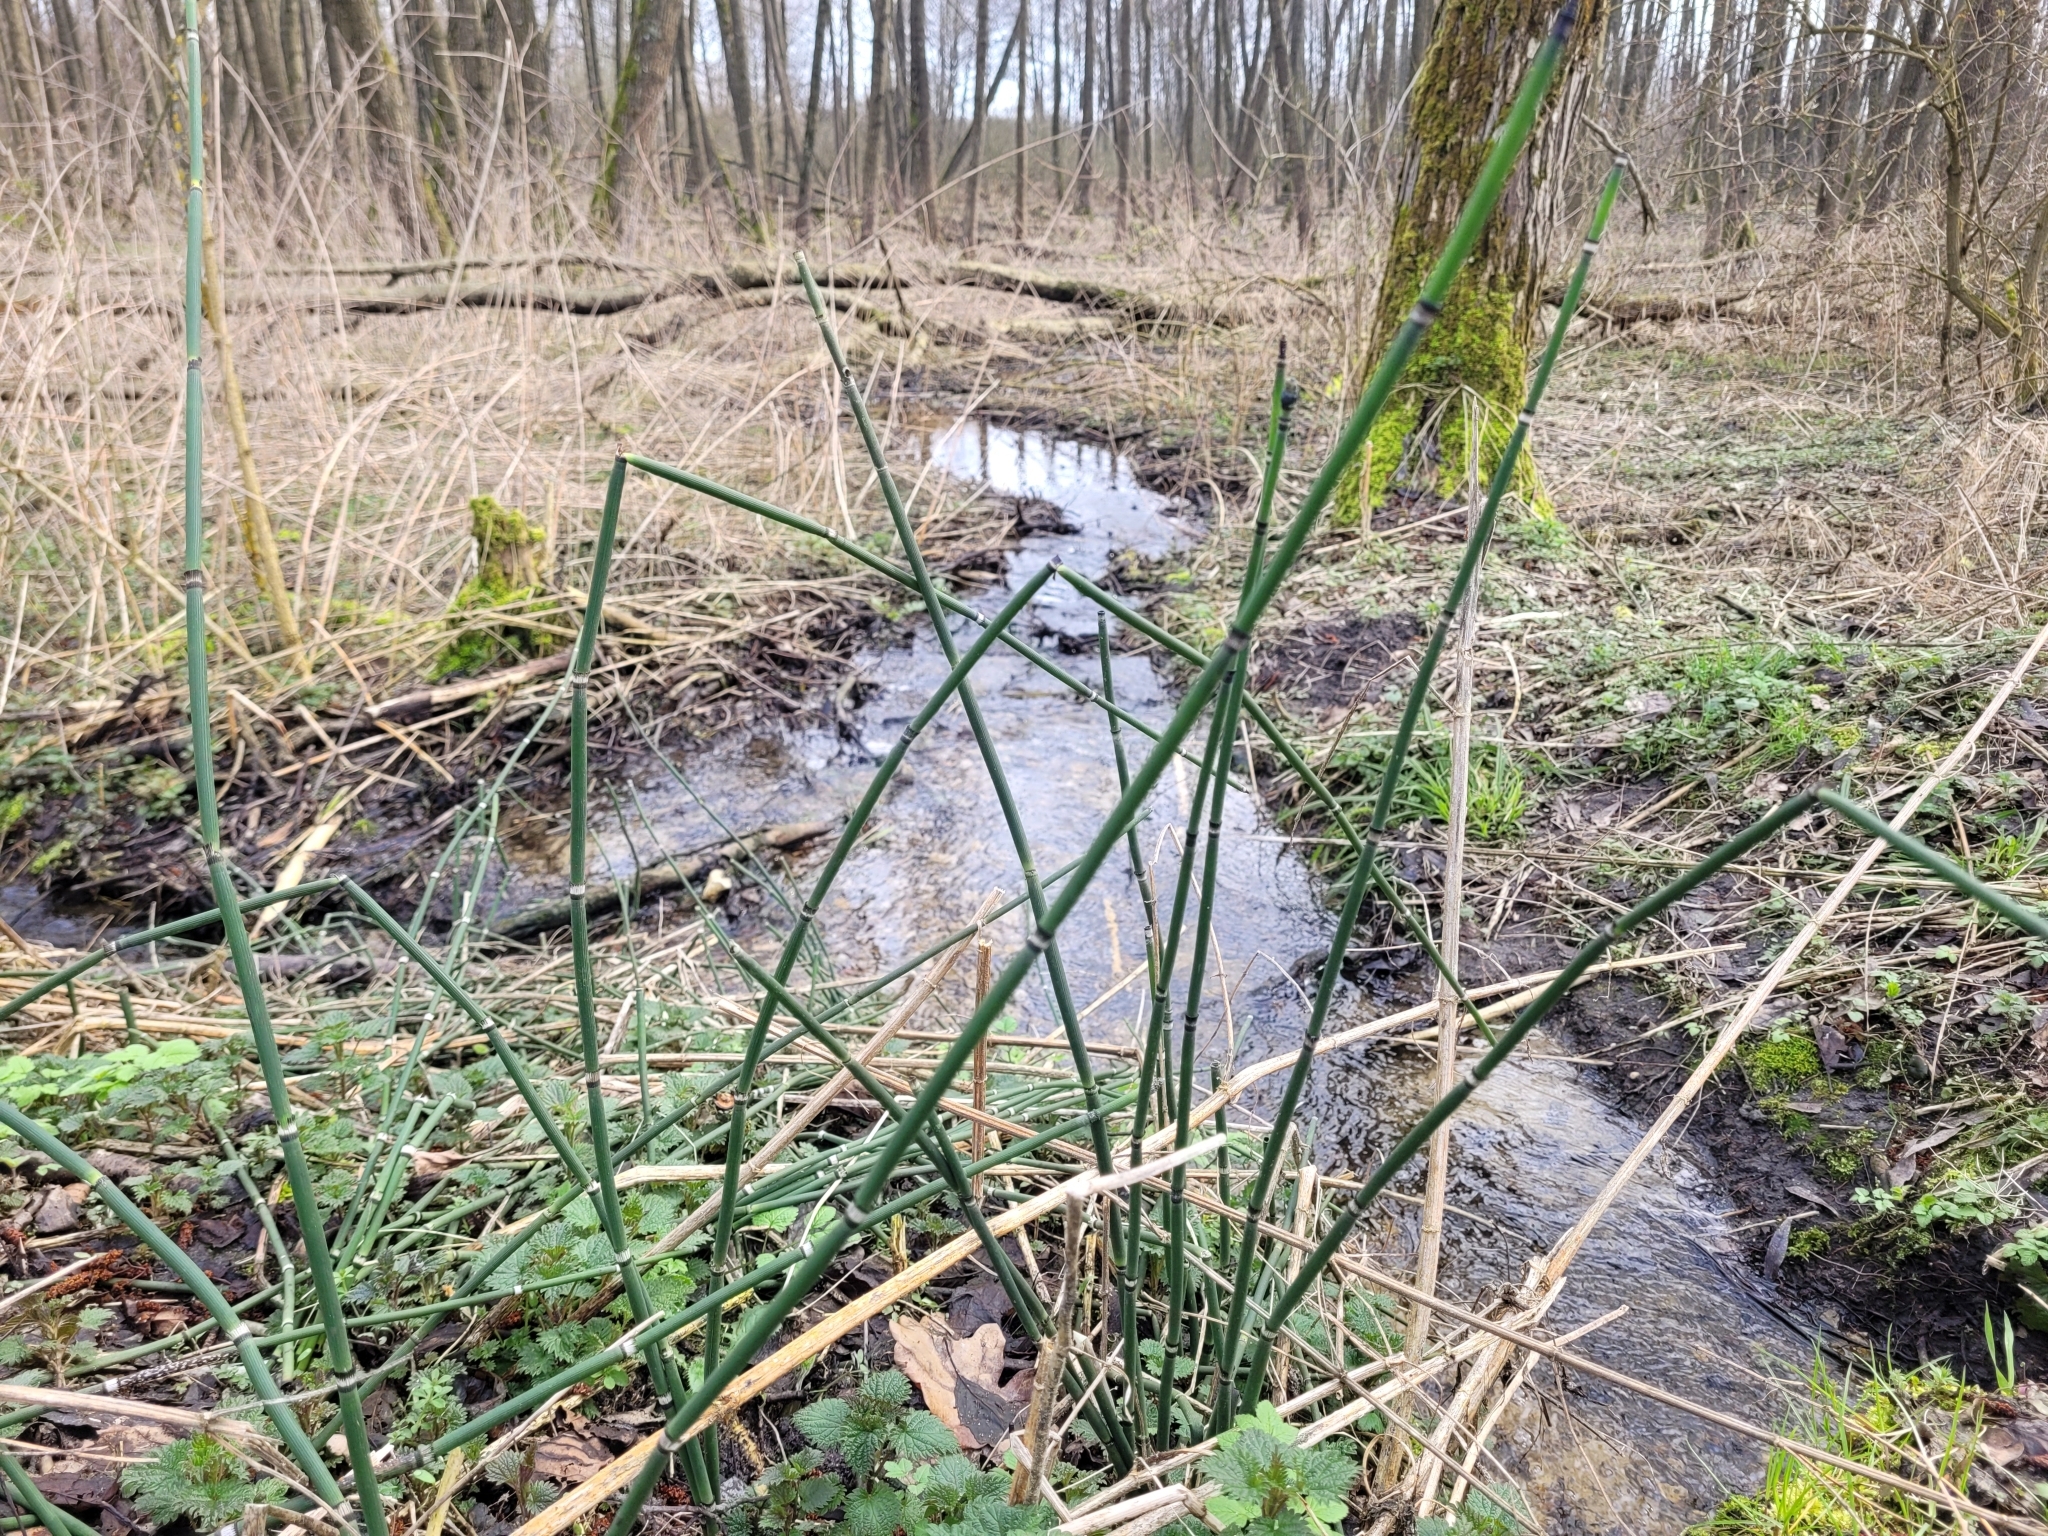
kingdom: Plantae
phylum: Tracheophyta
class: Polypodiopsida
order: Equisetales
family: Equisetaceae
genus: Equisetum
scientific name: Equisetum hyemale
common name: Rough horsetail
